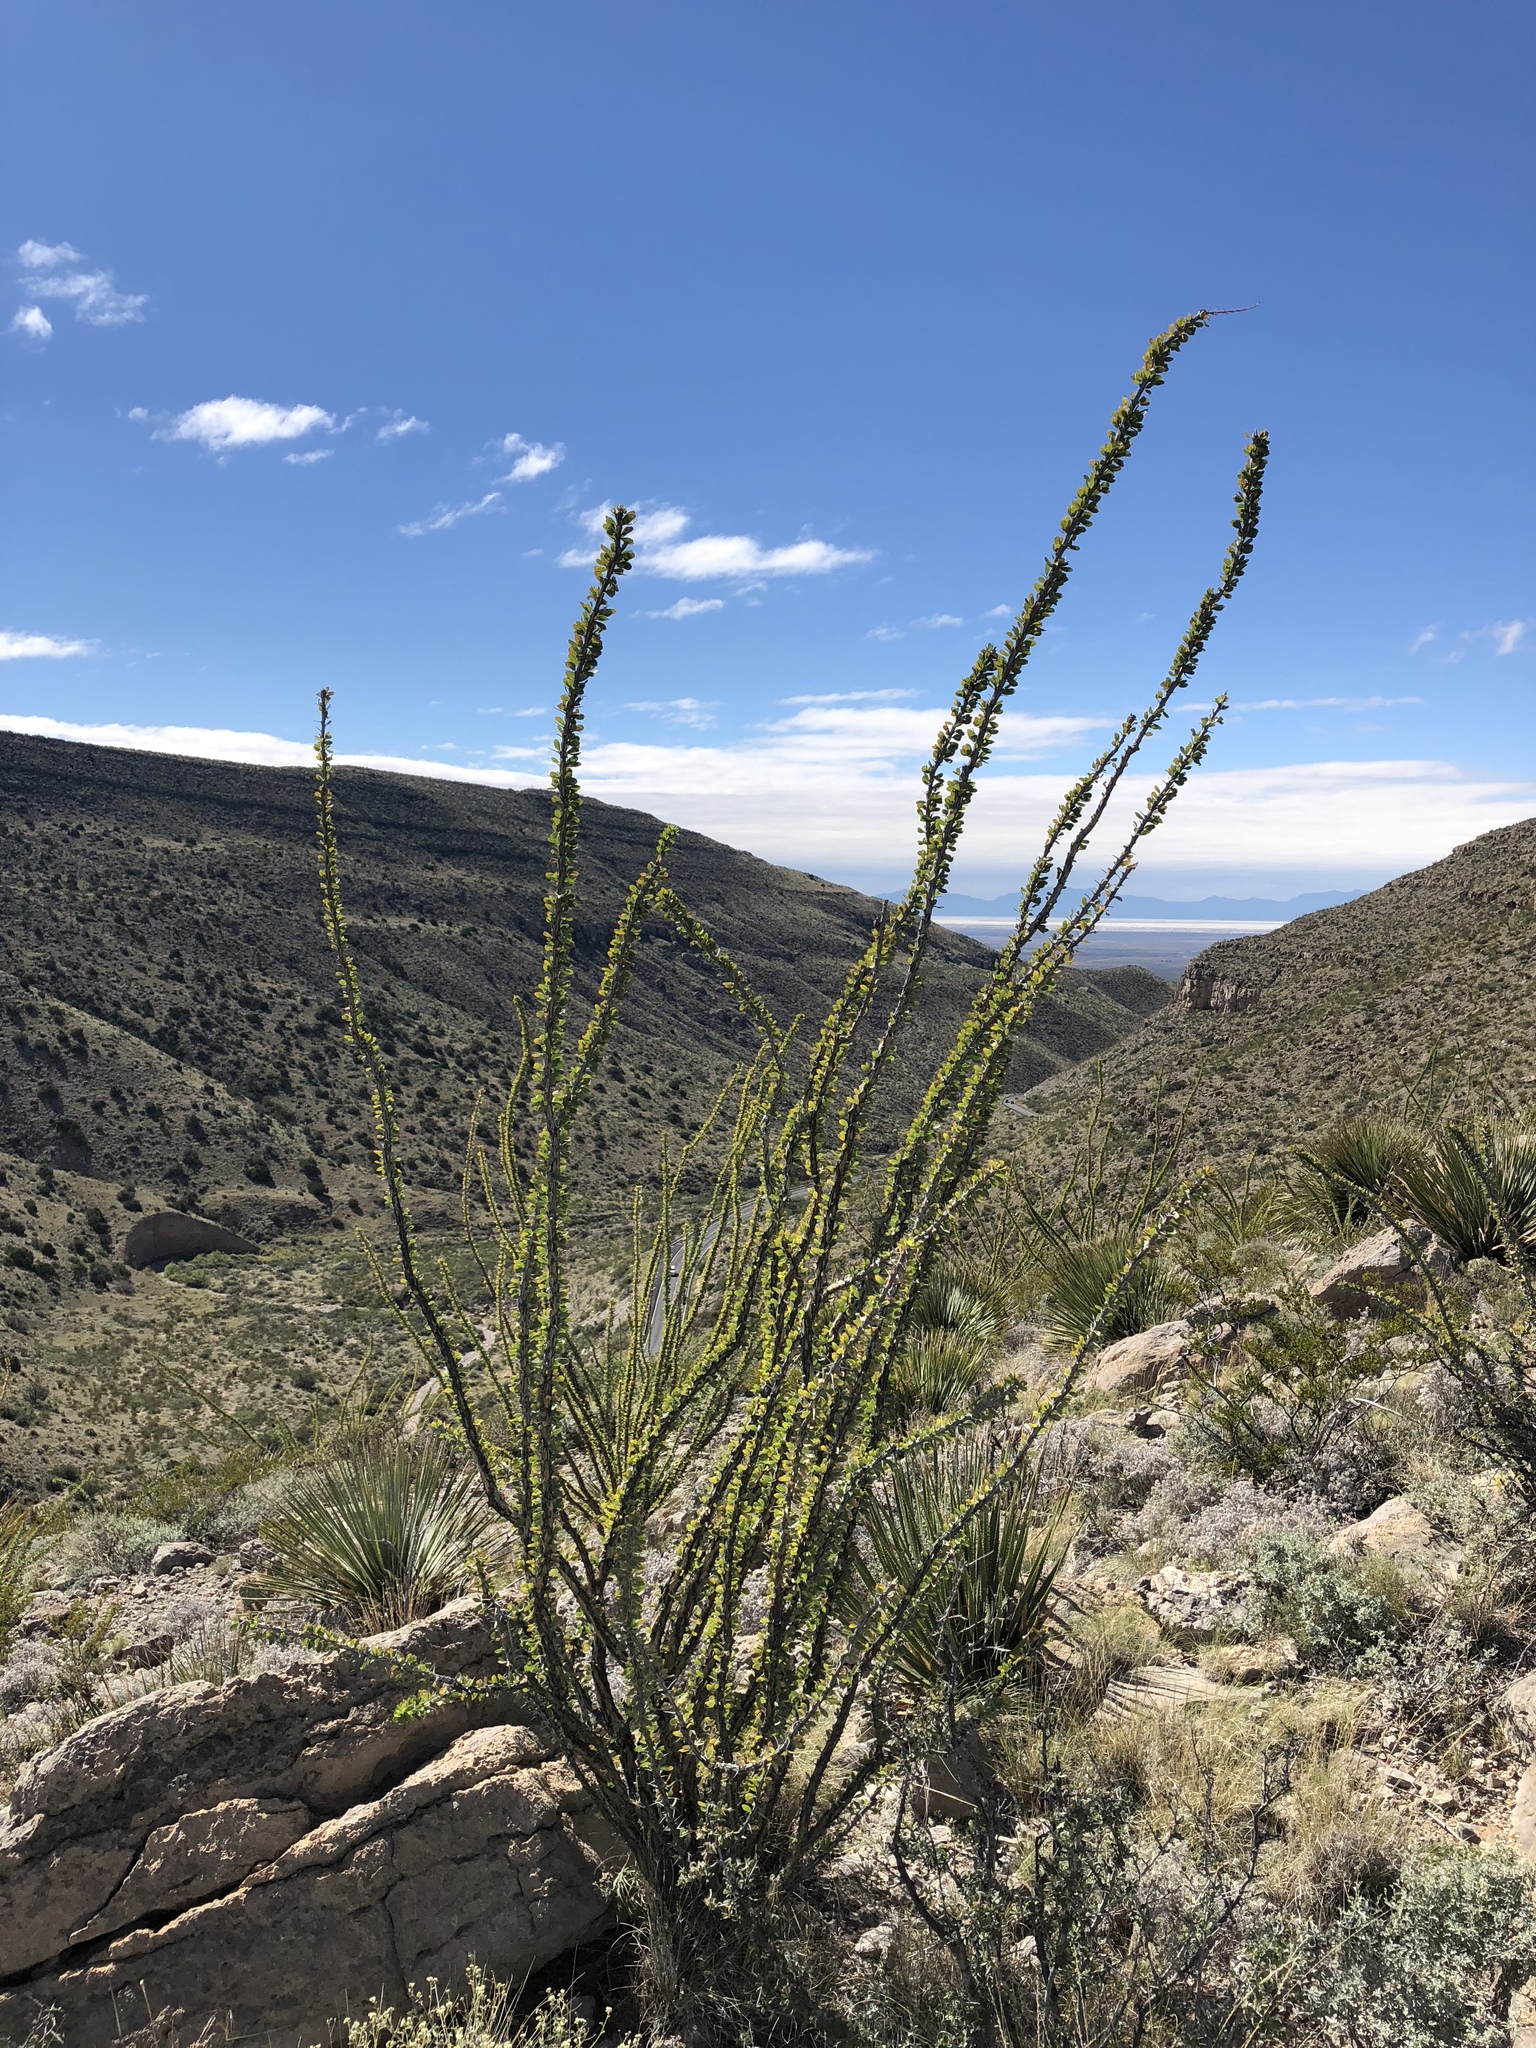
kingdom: Plantae
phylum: Tracheophyta
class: Magnoliopsida
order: Ericales
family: Fouquieriaceae
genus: Fouquieria
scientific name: Fouquieria splendens
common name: Vine-cactus
